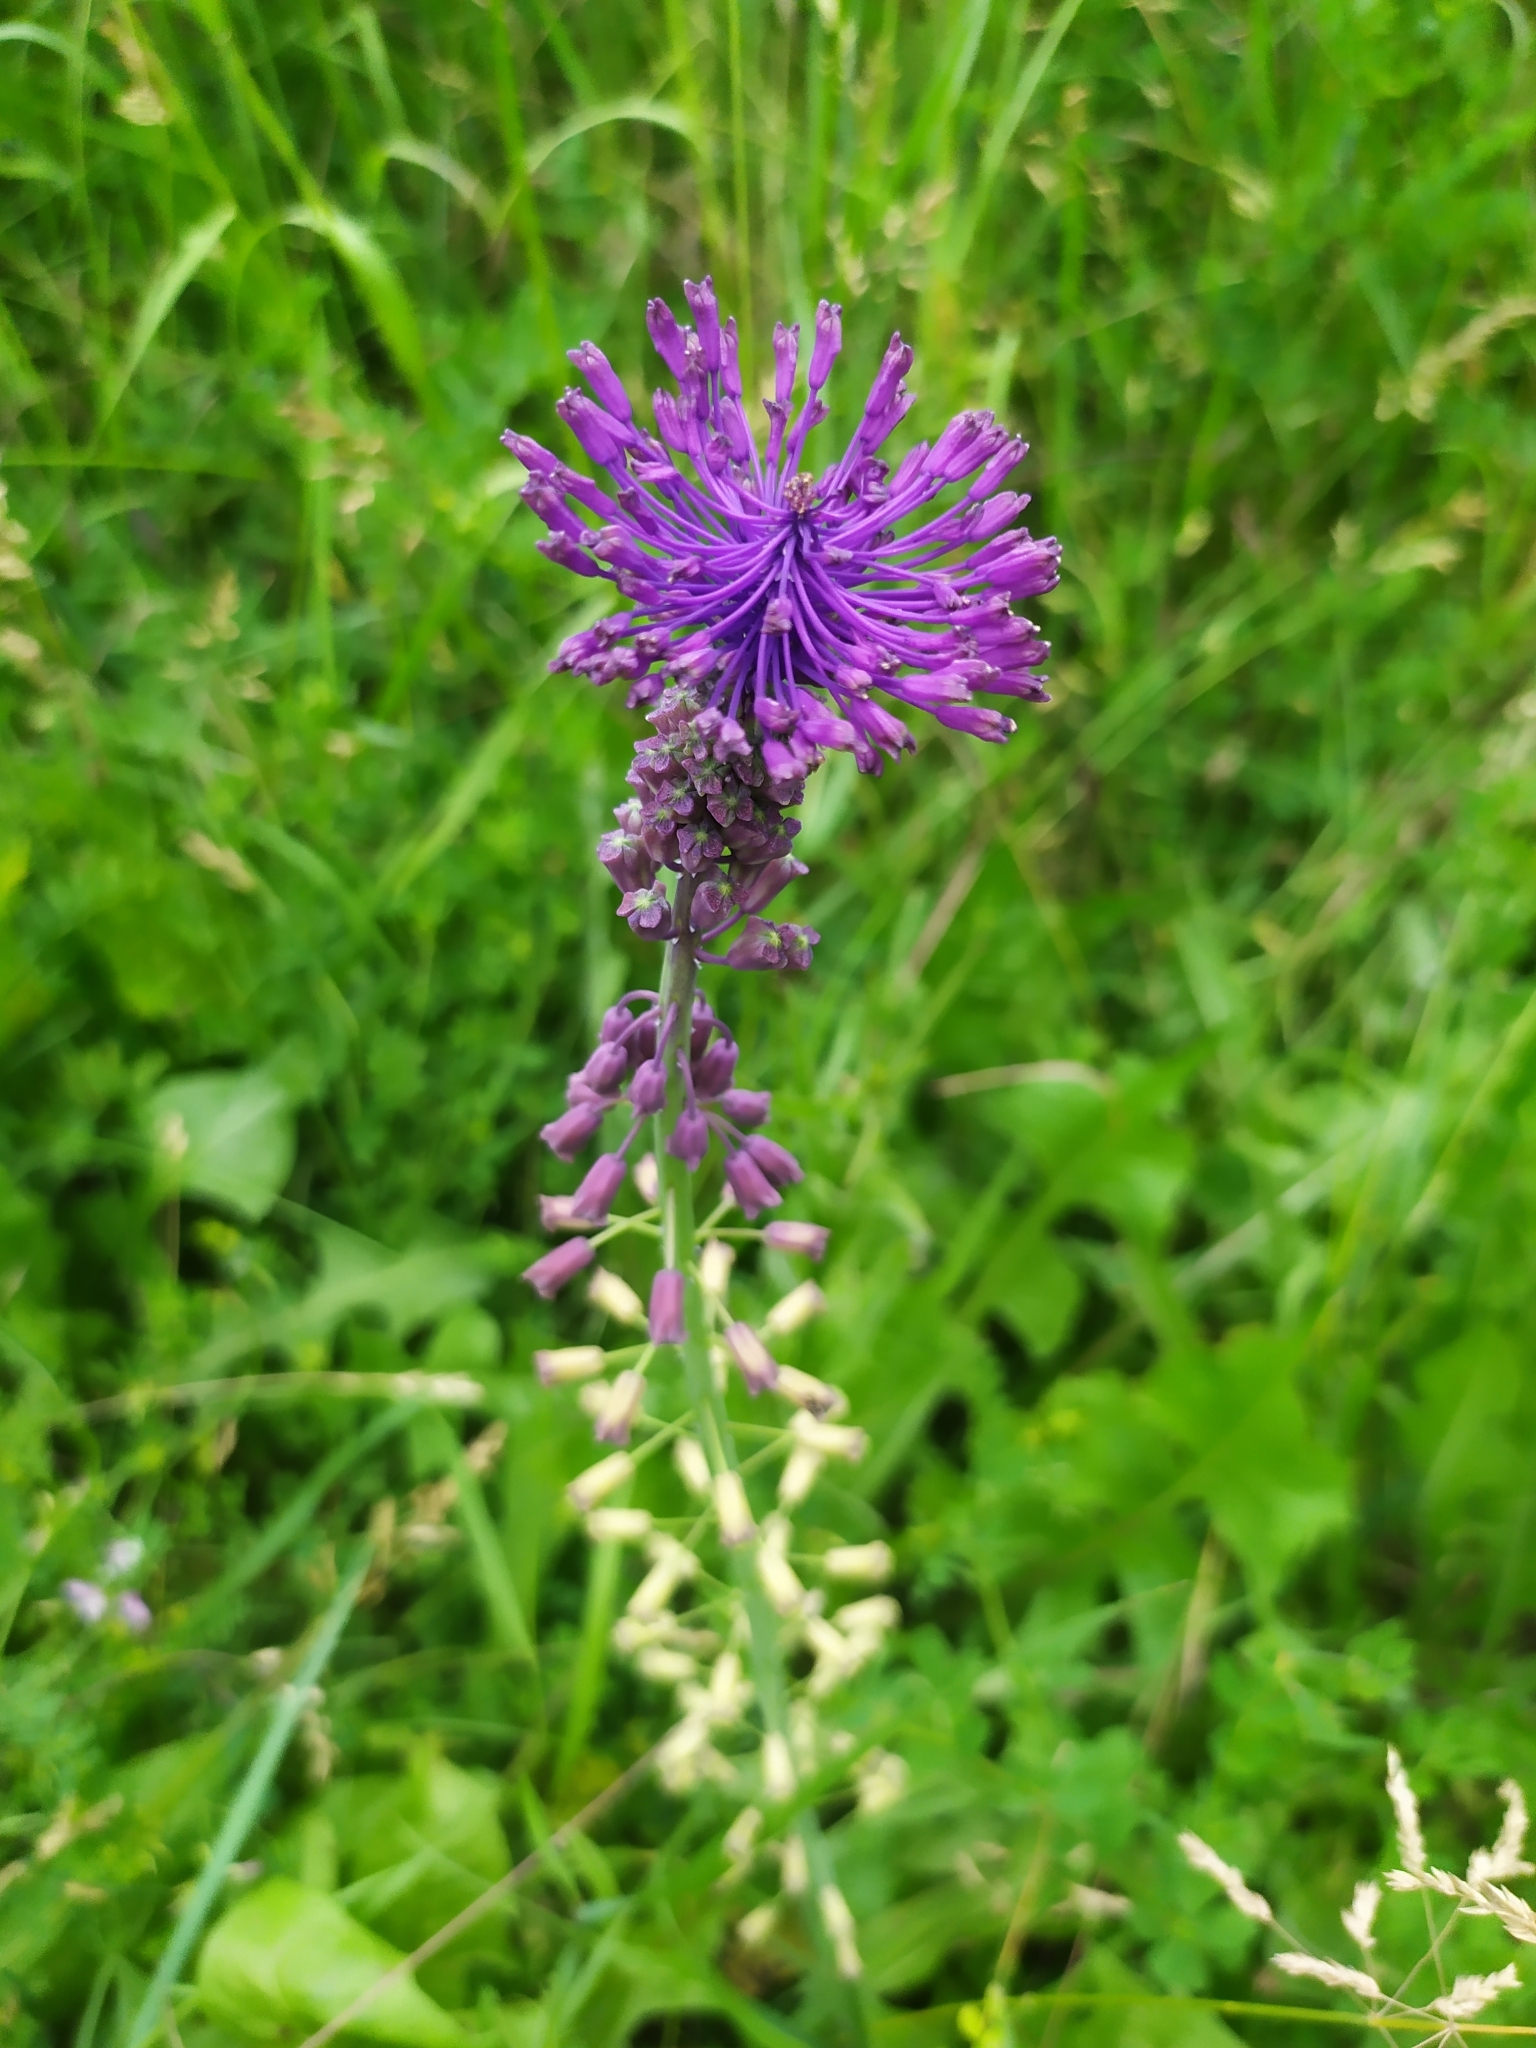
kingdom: Plantae
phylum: Tracheophyta
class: Liliopsida
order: Asparagales
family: Asparagaceae
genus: Muscari
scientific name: Muscari comosum
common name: Tassel hyacinth
